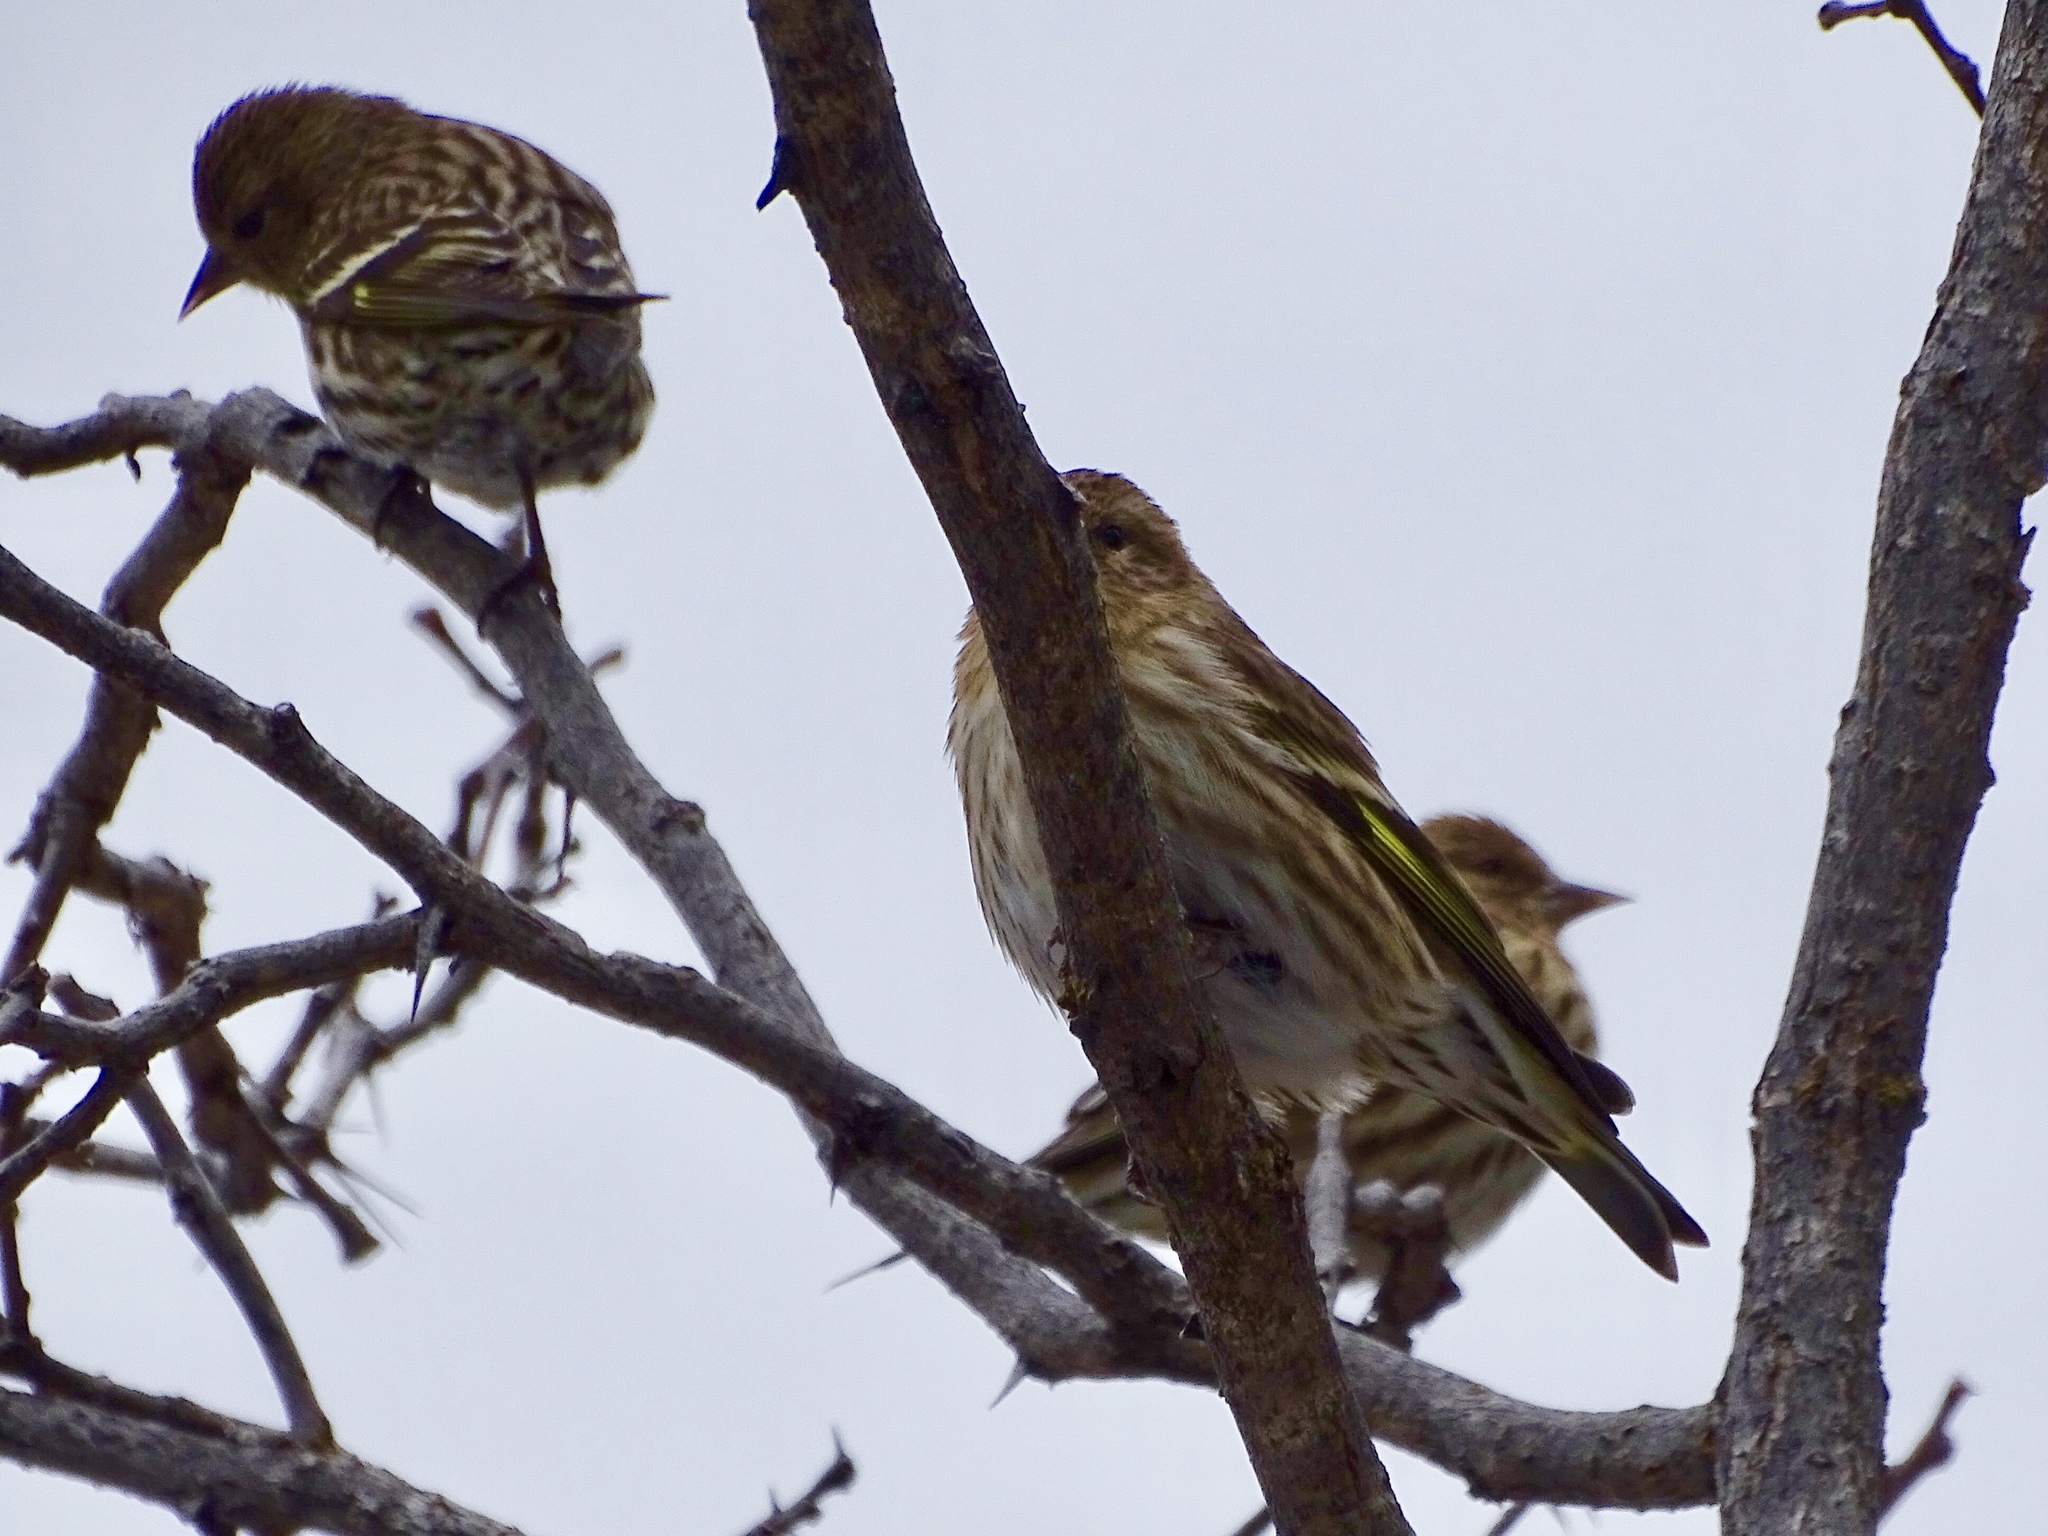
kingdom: Animalia
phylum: Chordata
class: Aves
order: Passeriformes
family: Fringillidae
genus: Spinus
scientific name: Spinus pinus
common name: Pine siskin
